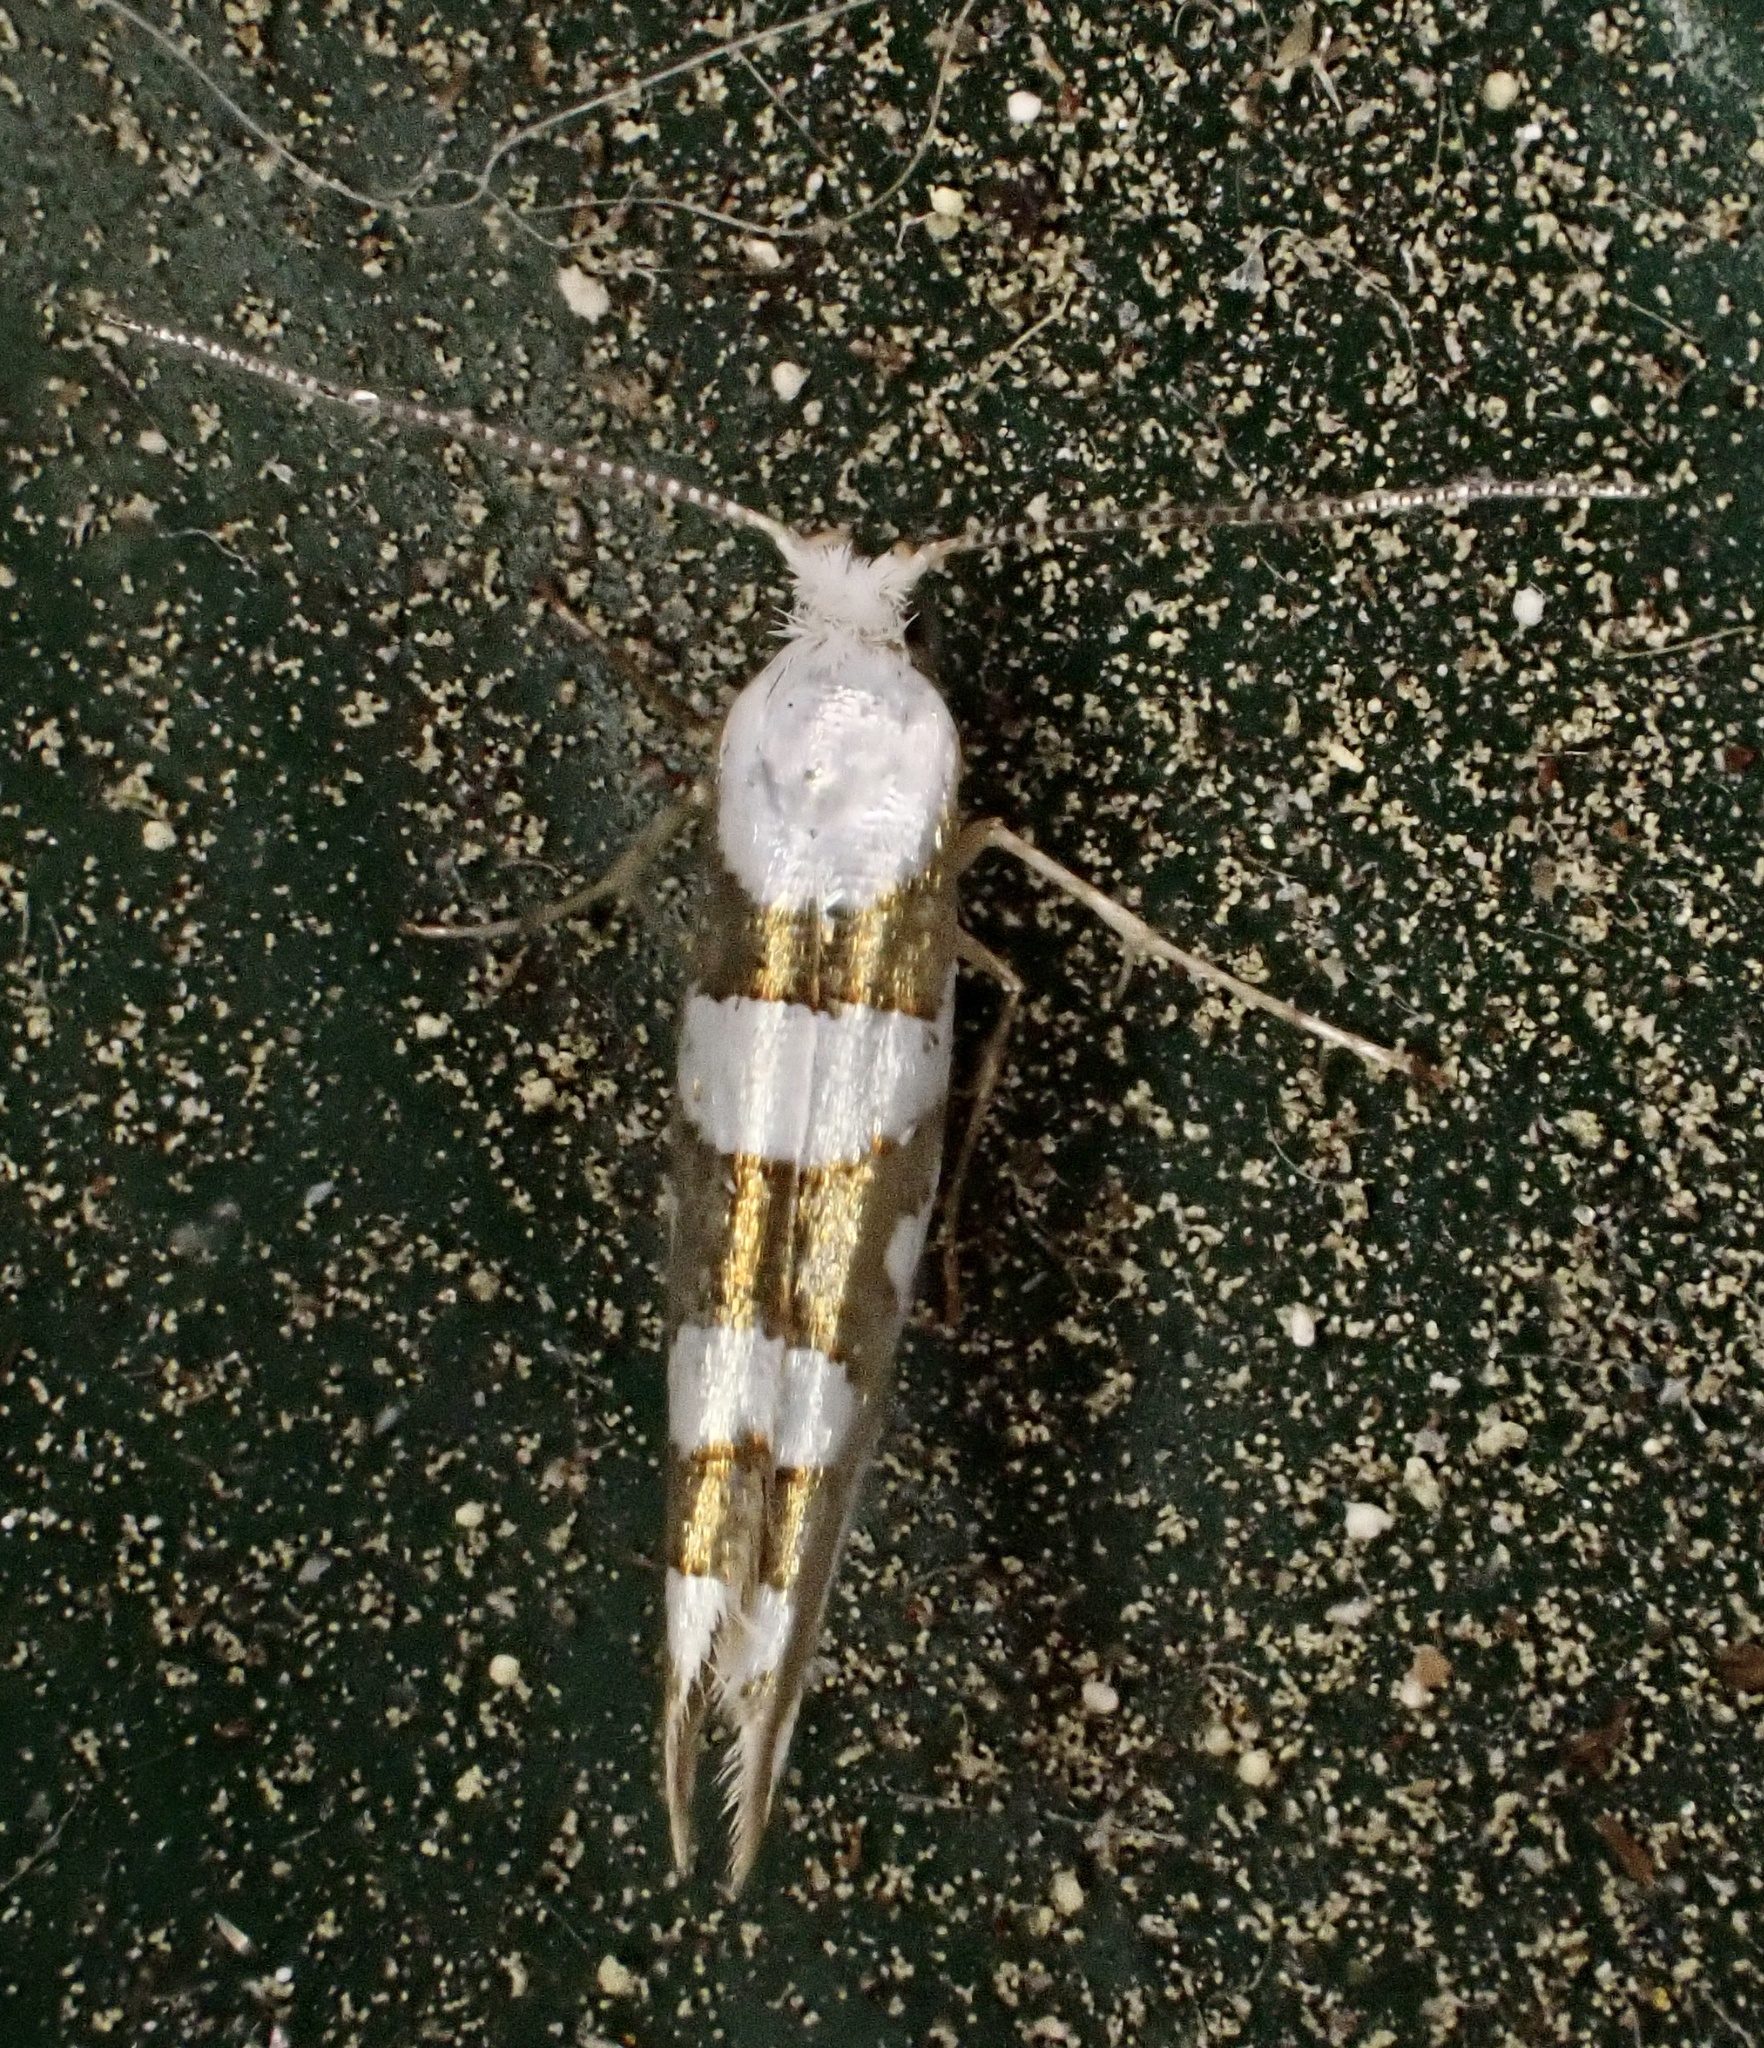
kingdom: Animalia
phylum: Arthropoda
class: Insecta
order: Lepidoptera
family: Argyresthiidae
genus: Argyresthia
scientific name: Argyresthia calliphanes
